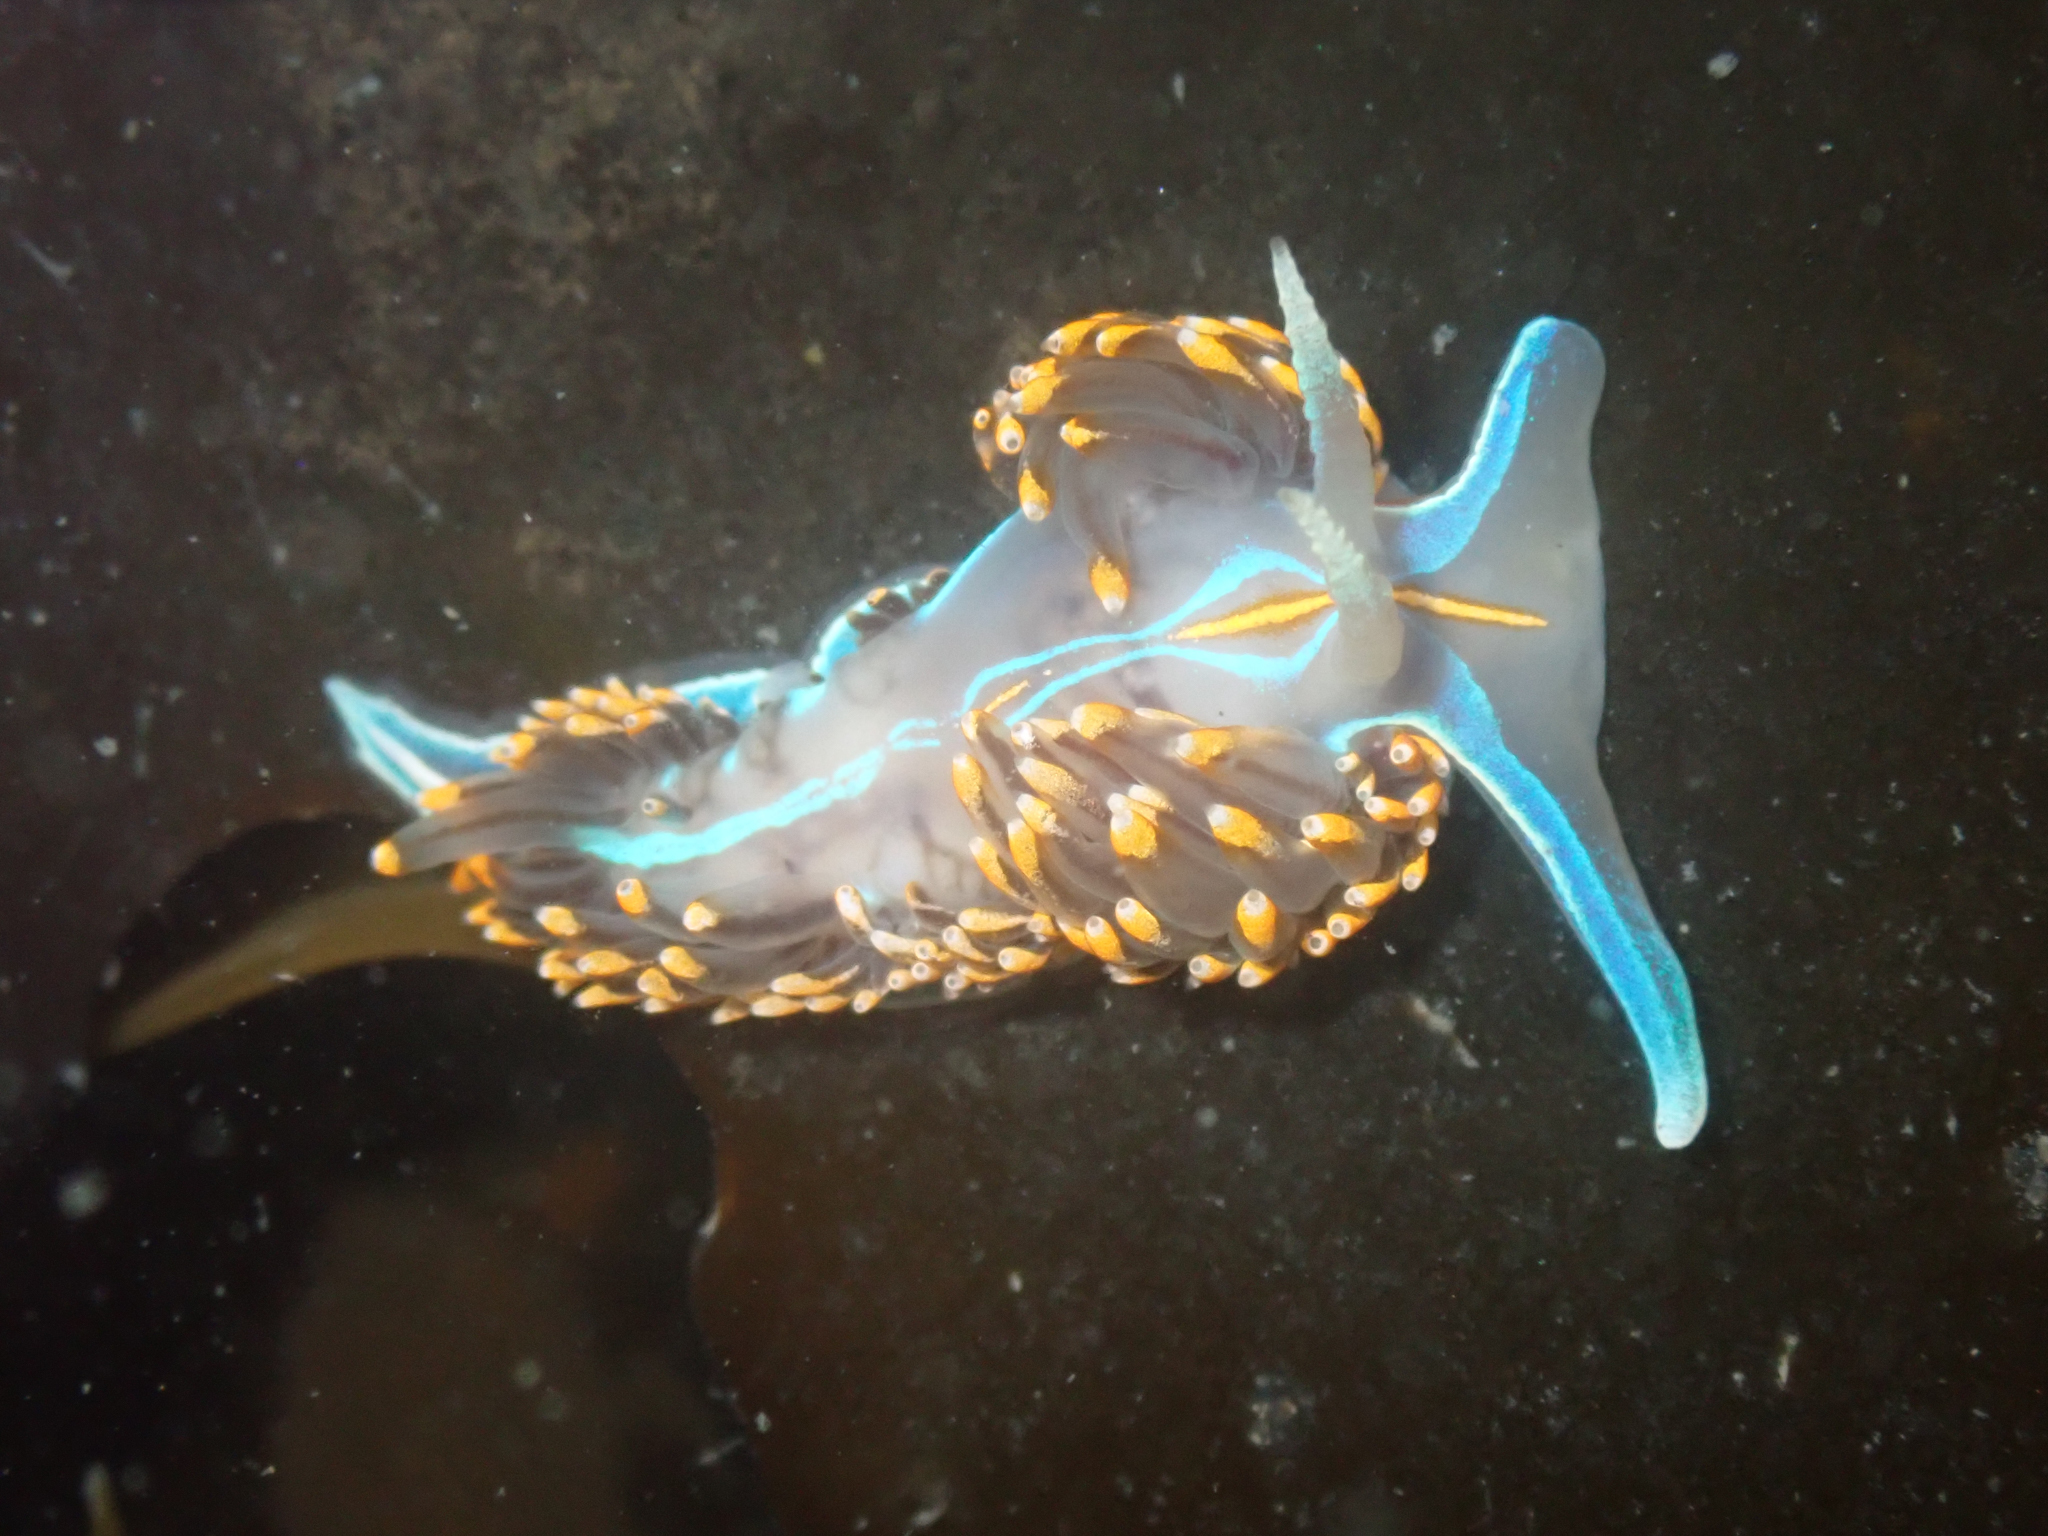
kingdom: Animalia
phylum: Mollusca
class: Gastropoda
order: Nudibranchia
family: Myrrhinidae
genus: Hermissenda
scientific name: Hermissenda opalescens
